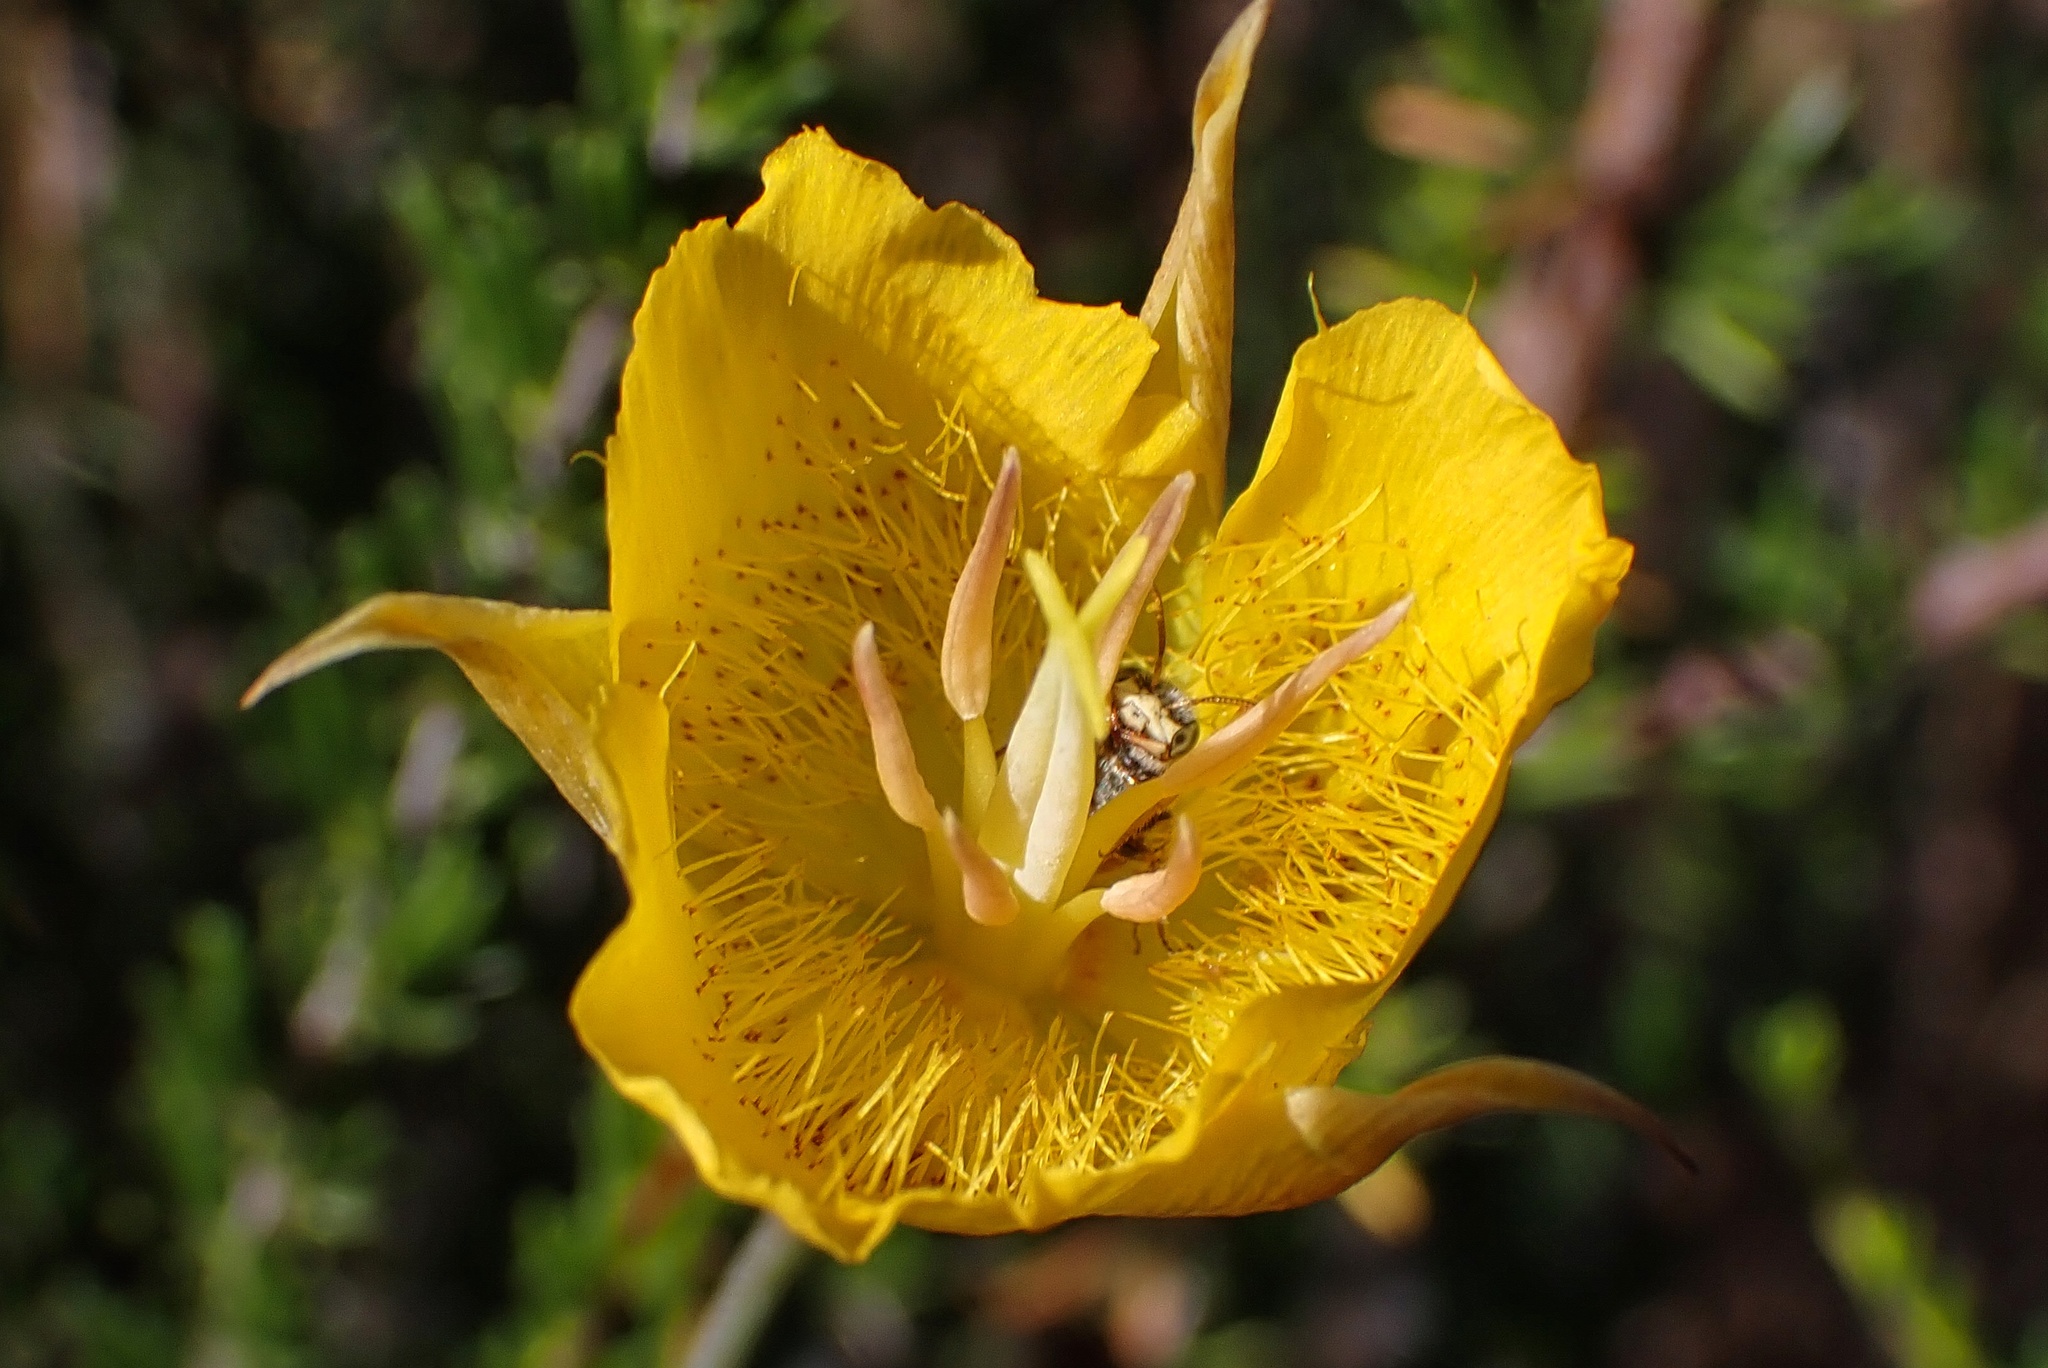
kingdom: Plantae
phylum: Tracheophyta
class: Liliopsida
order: Liliales
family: Liliaceae
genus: Calochortus
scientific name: Calochortus weedii
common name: Weed's mariposa-lily
